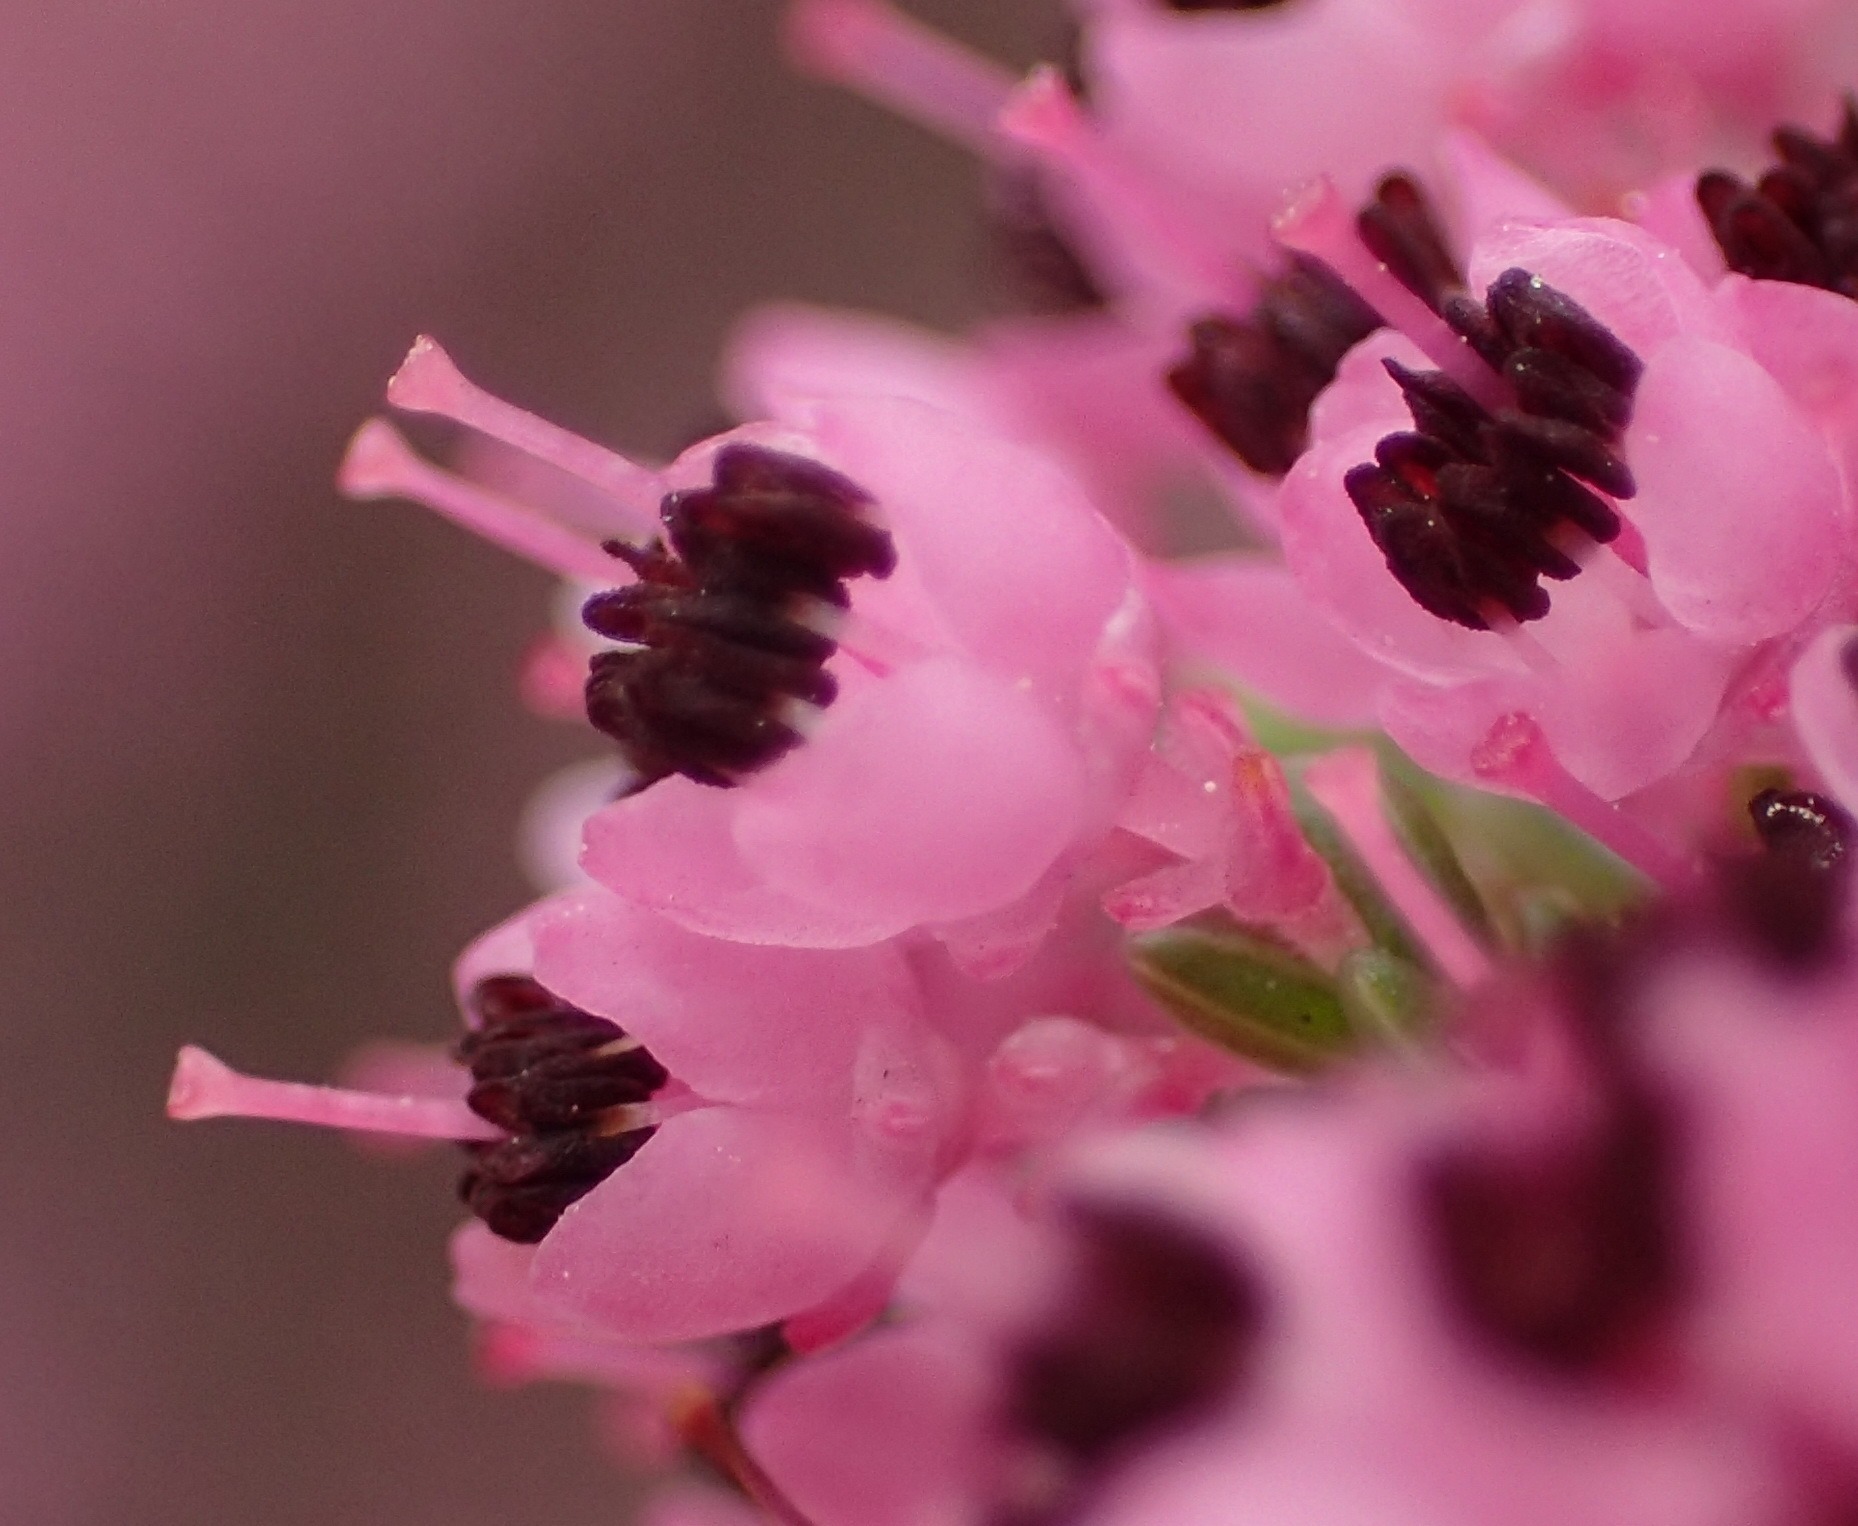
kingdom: Plantae
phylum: Tracheophyta
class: Magnoliopsida
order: Ericales
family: Ericaceae
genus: Erica
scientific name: Erica sparsa
